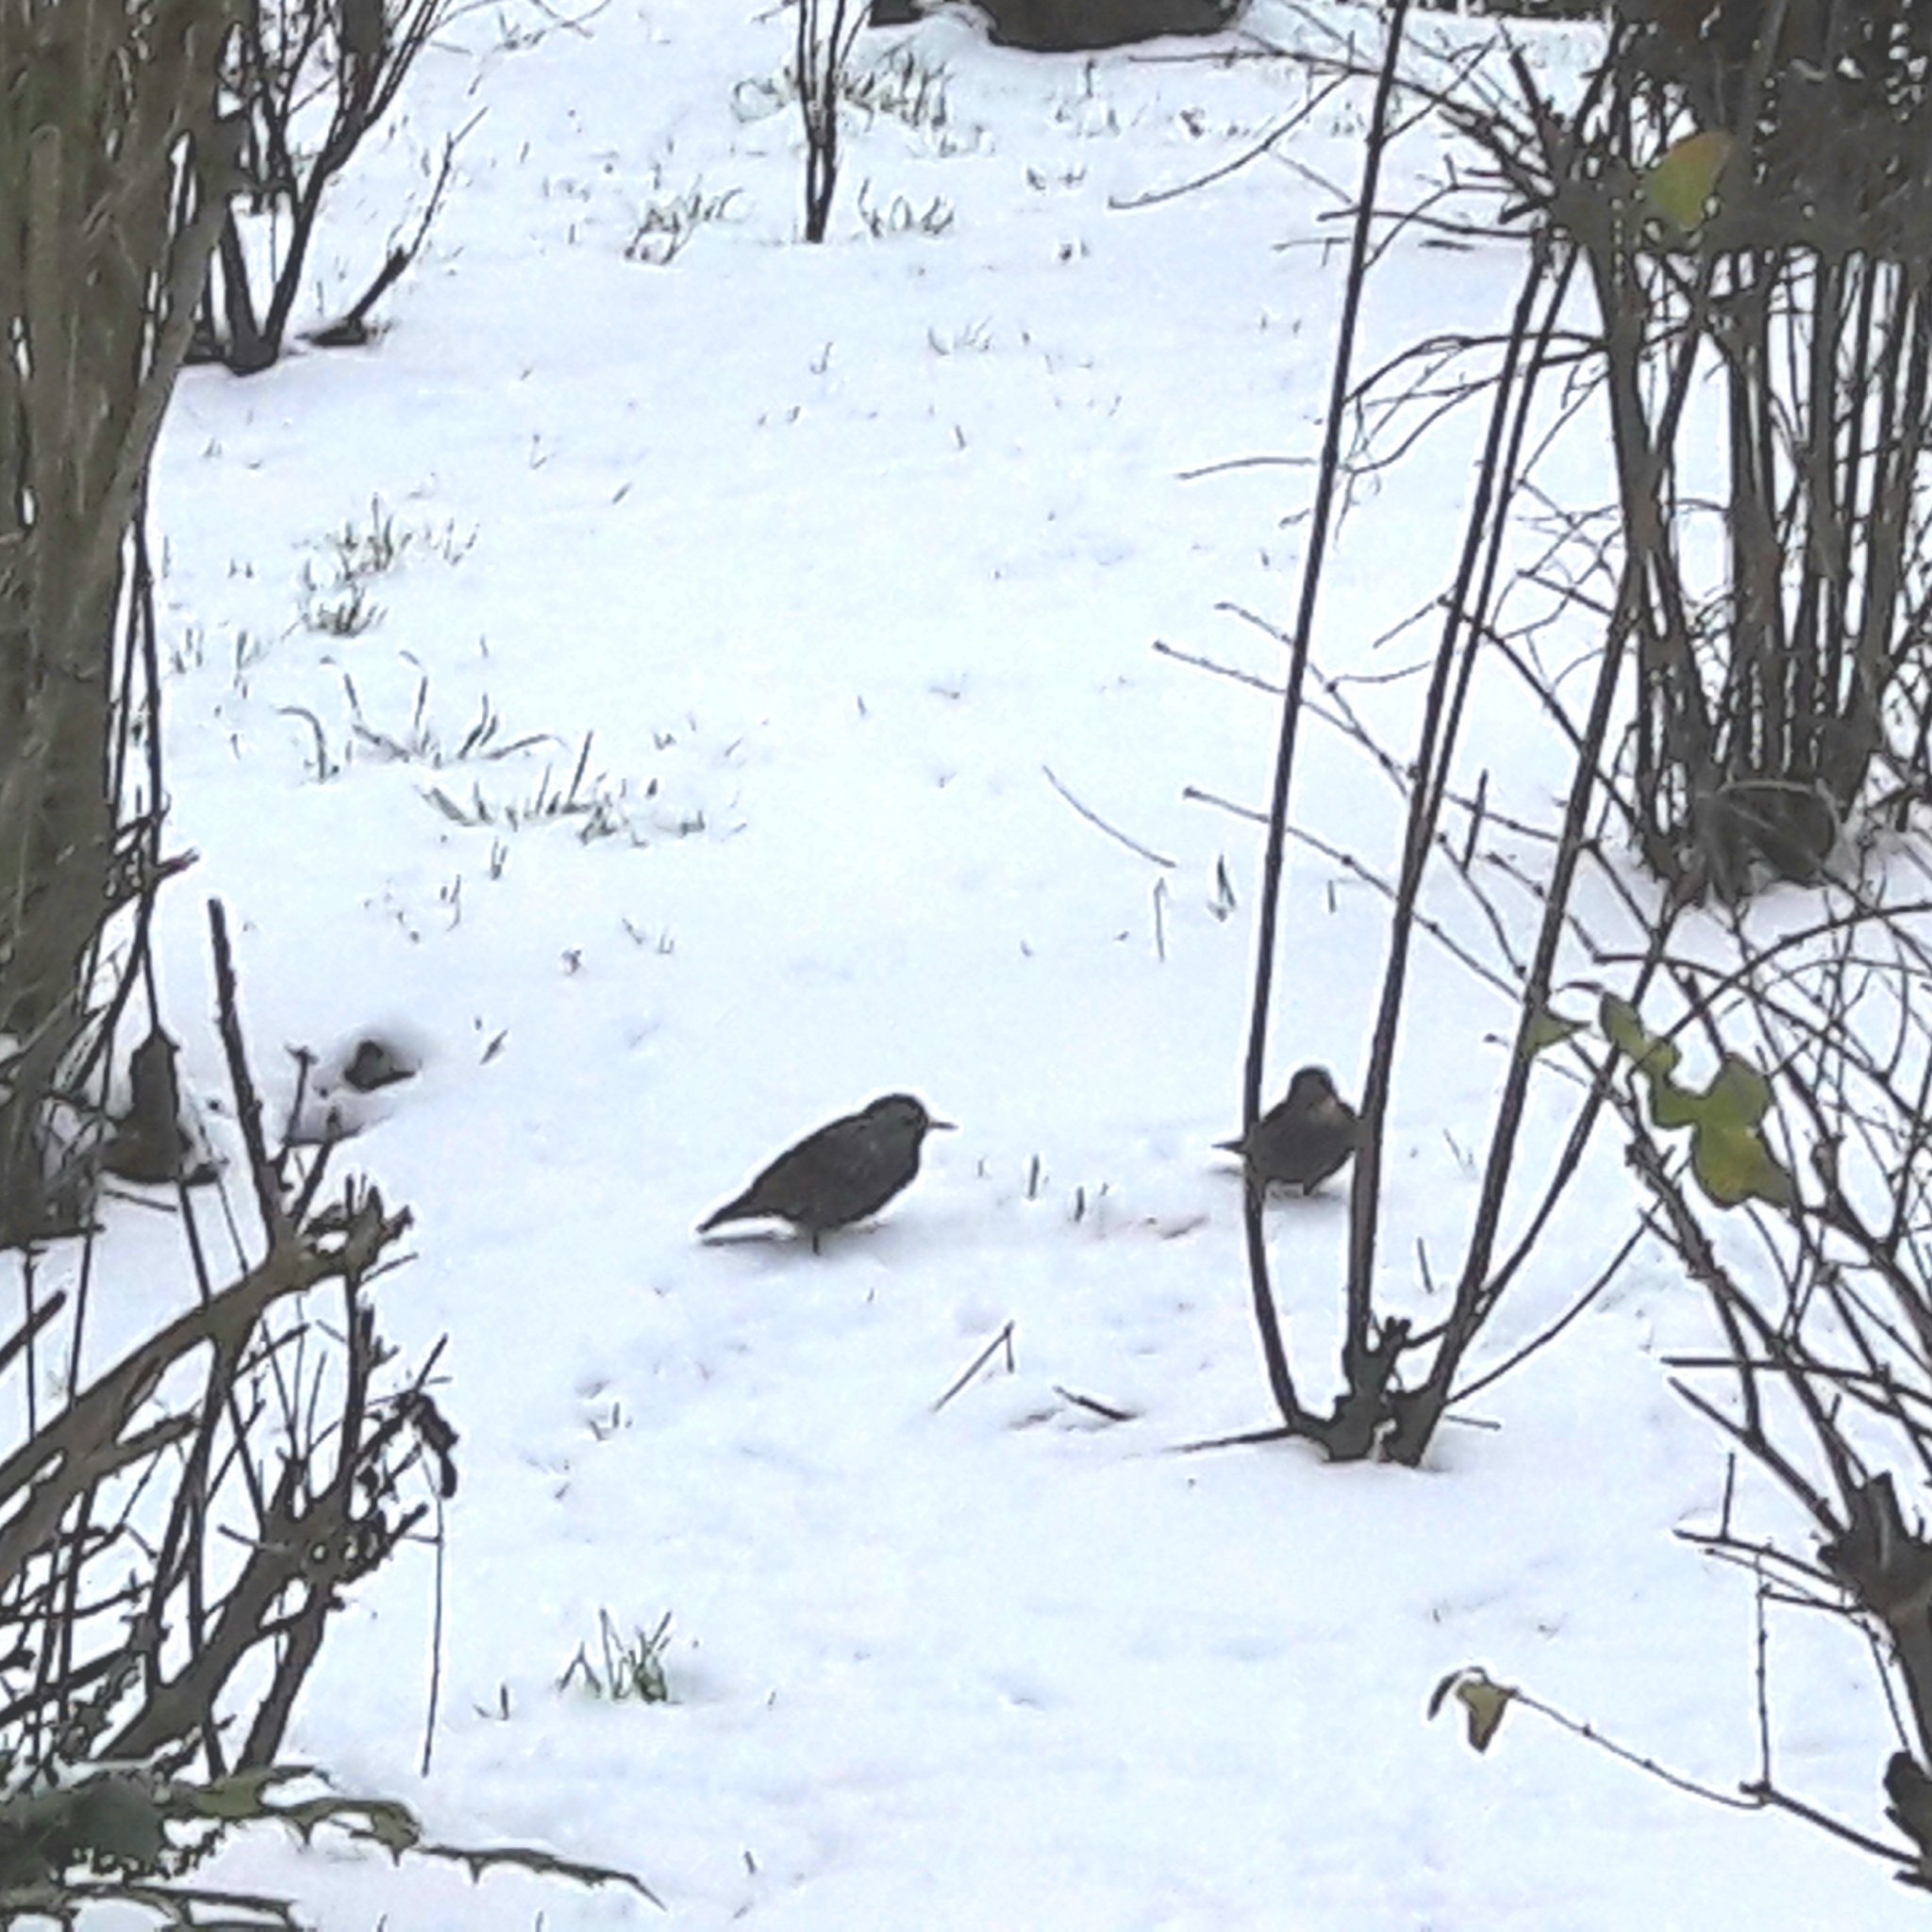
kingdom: Animalia
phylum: Chordata
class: Aves
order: Passeriformes
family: Sturnidae
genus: Sturnus
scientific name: Sturnus vulgaris
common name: Common starling
